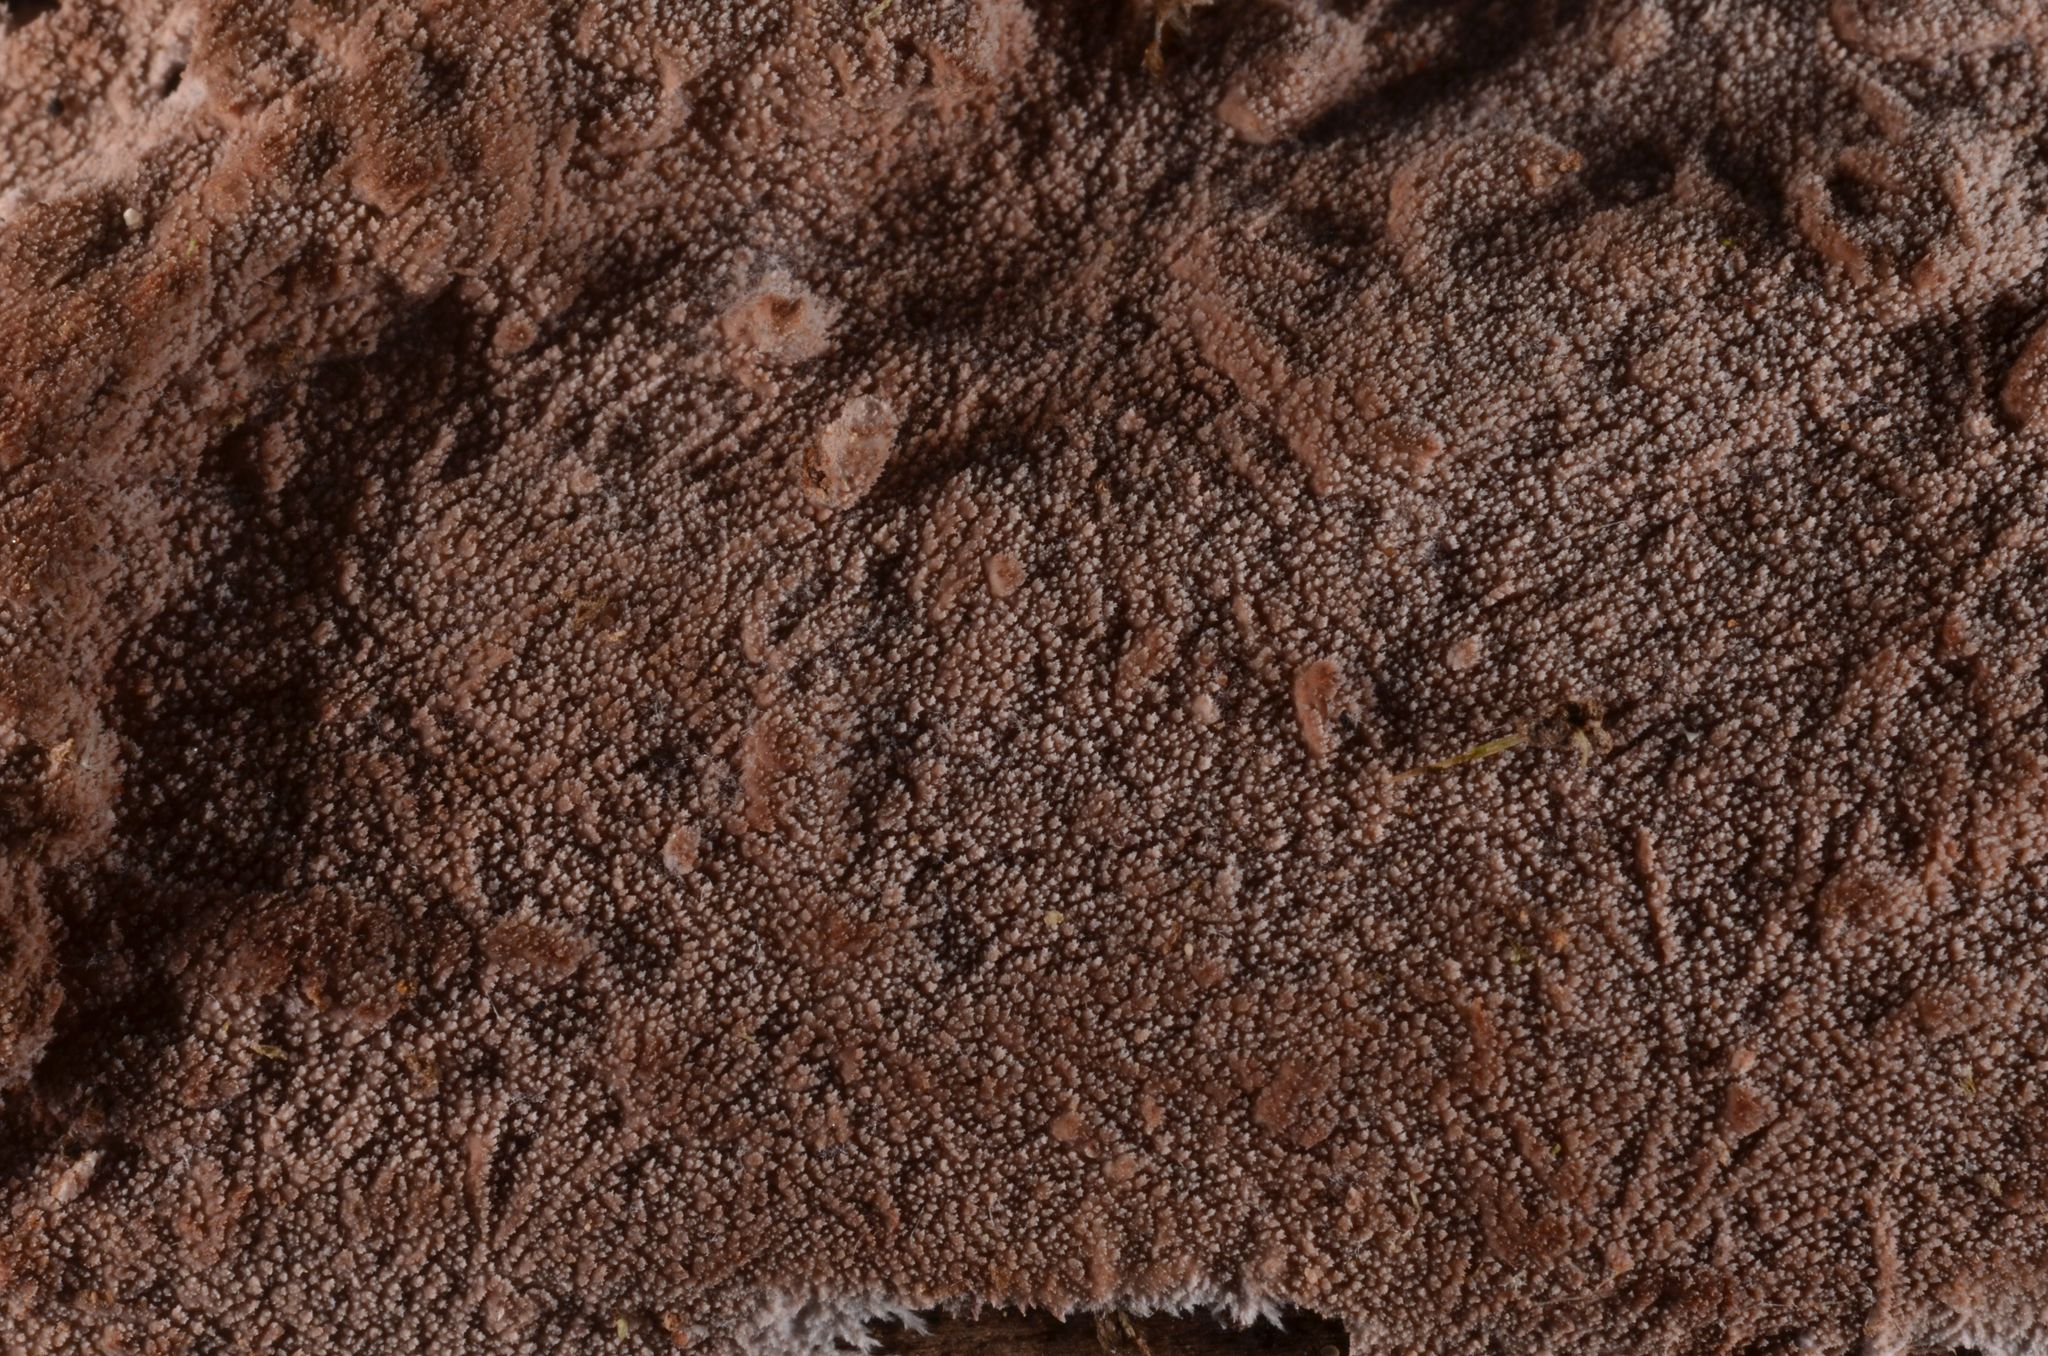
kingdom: Fungi
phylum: Basidiomycota
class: Agaricomycetes
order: Polyporales
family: Steccherinaceae
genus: Steccherinum
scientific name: Steccherinum fimbriatum
